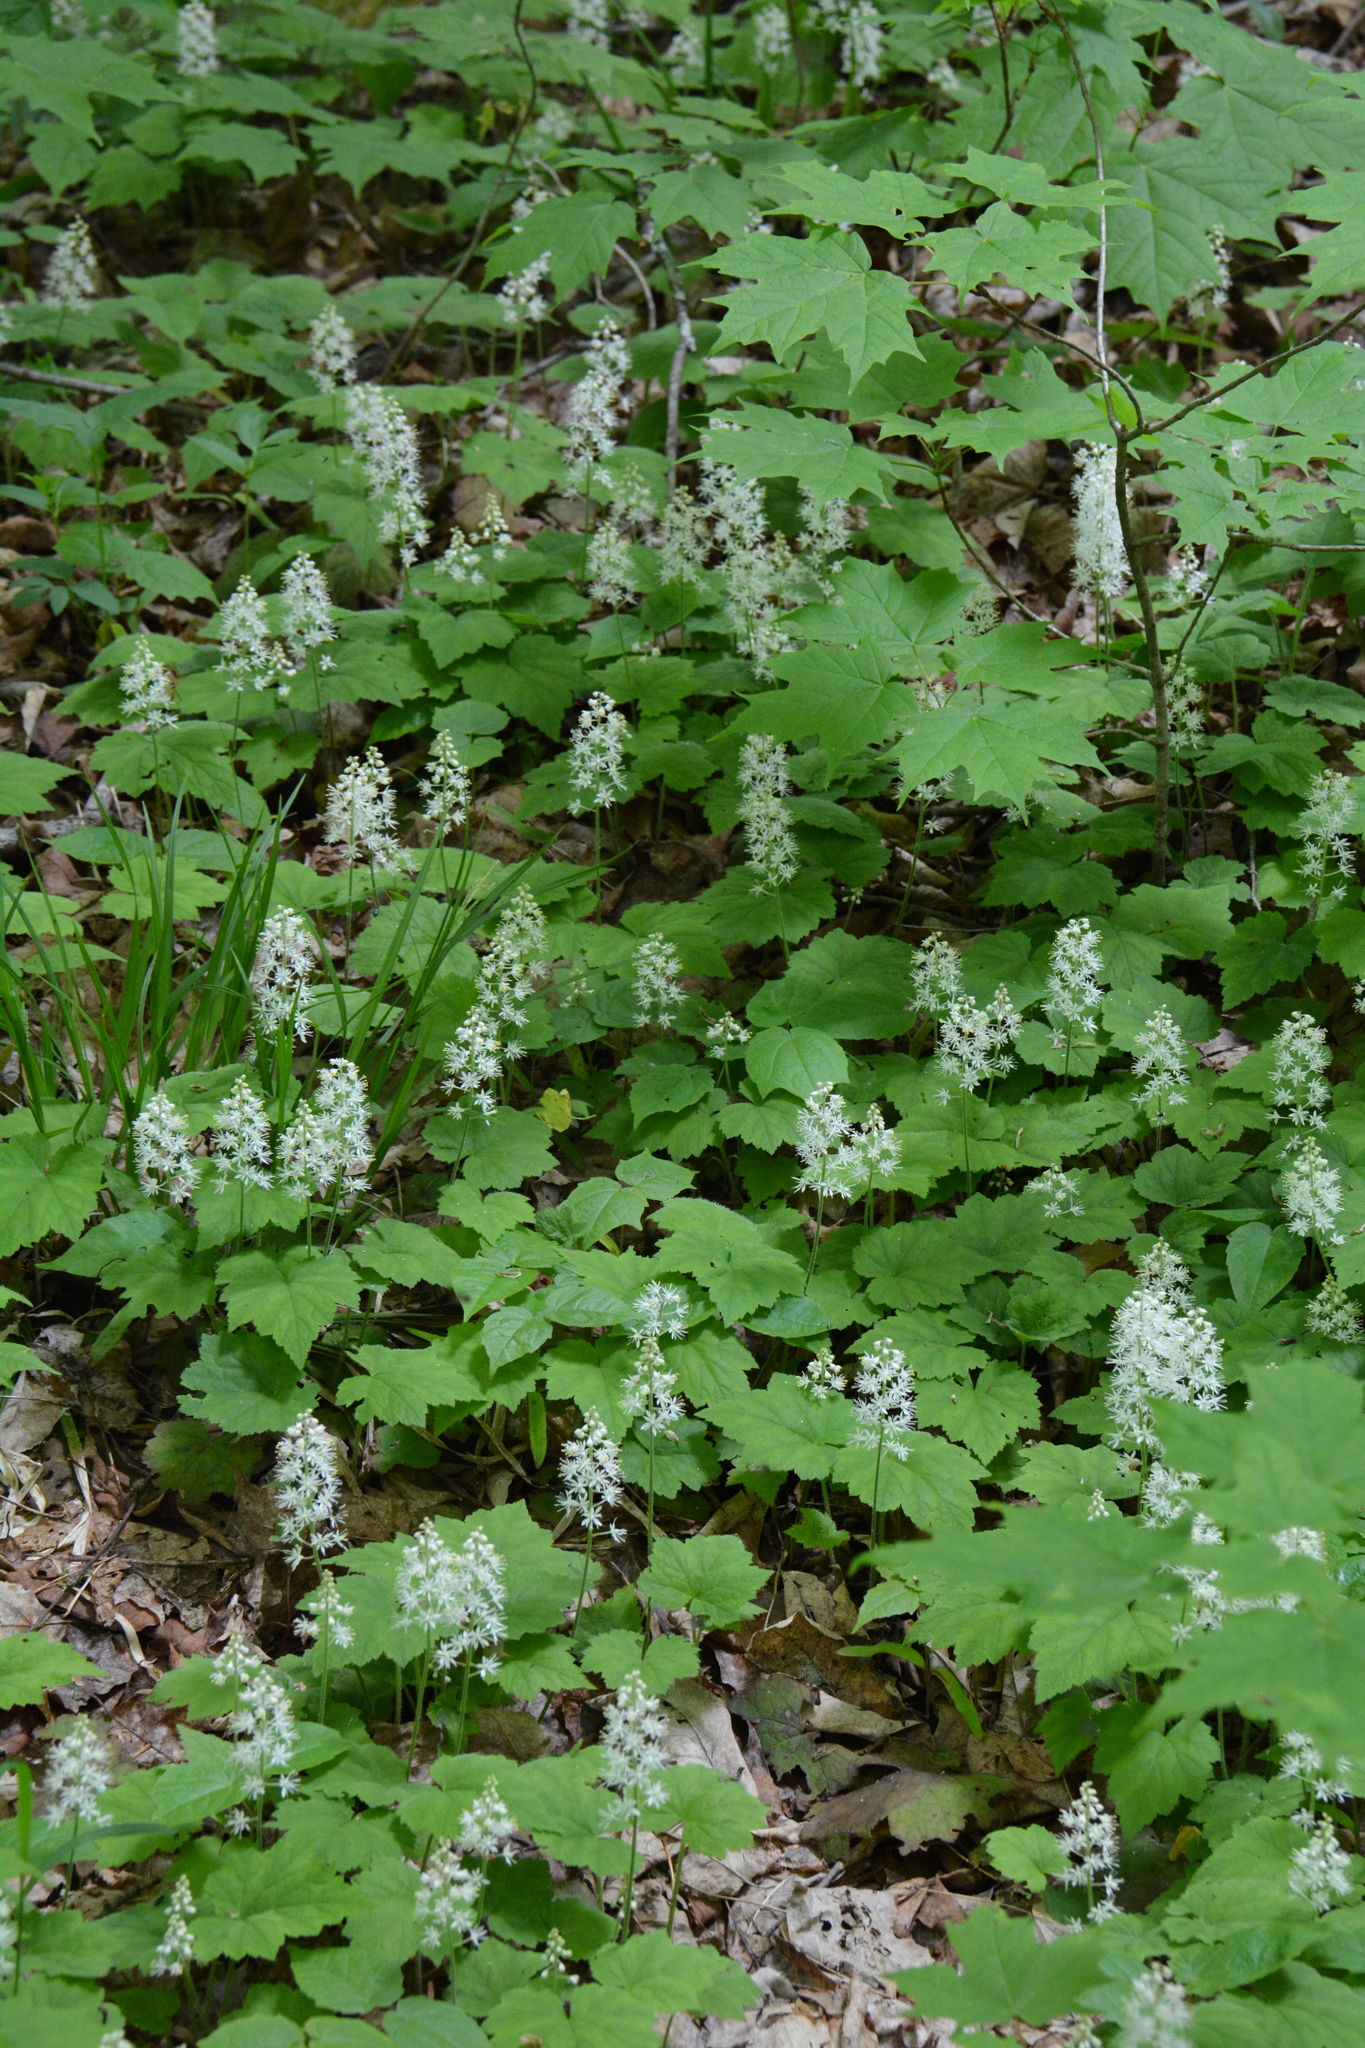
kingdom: Plantae
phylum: Tracheophyta
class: Magnoliopsida
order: Saxifragales
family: Saxifragaceae
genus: Tiarella
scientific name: Tiarella stolonifera
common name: Stoloniferous foamflower
